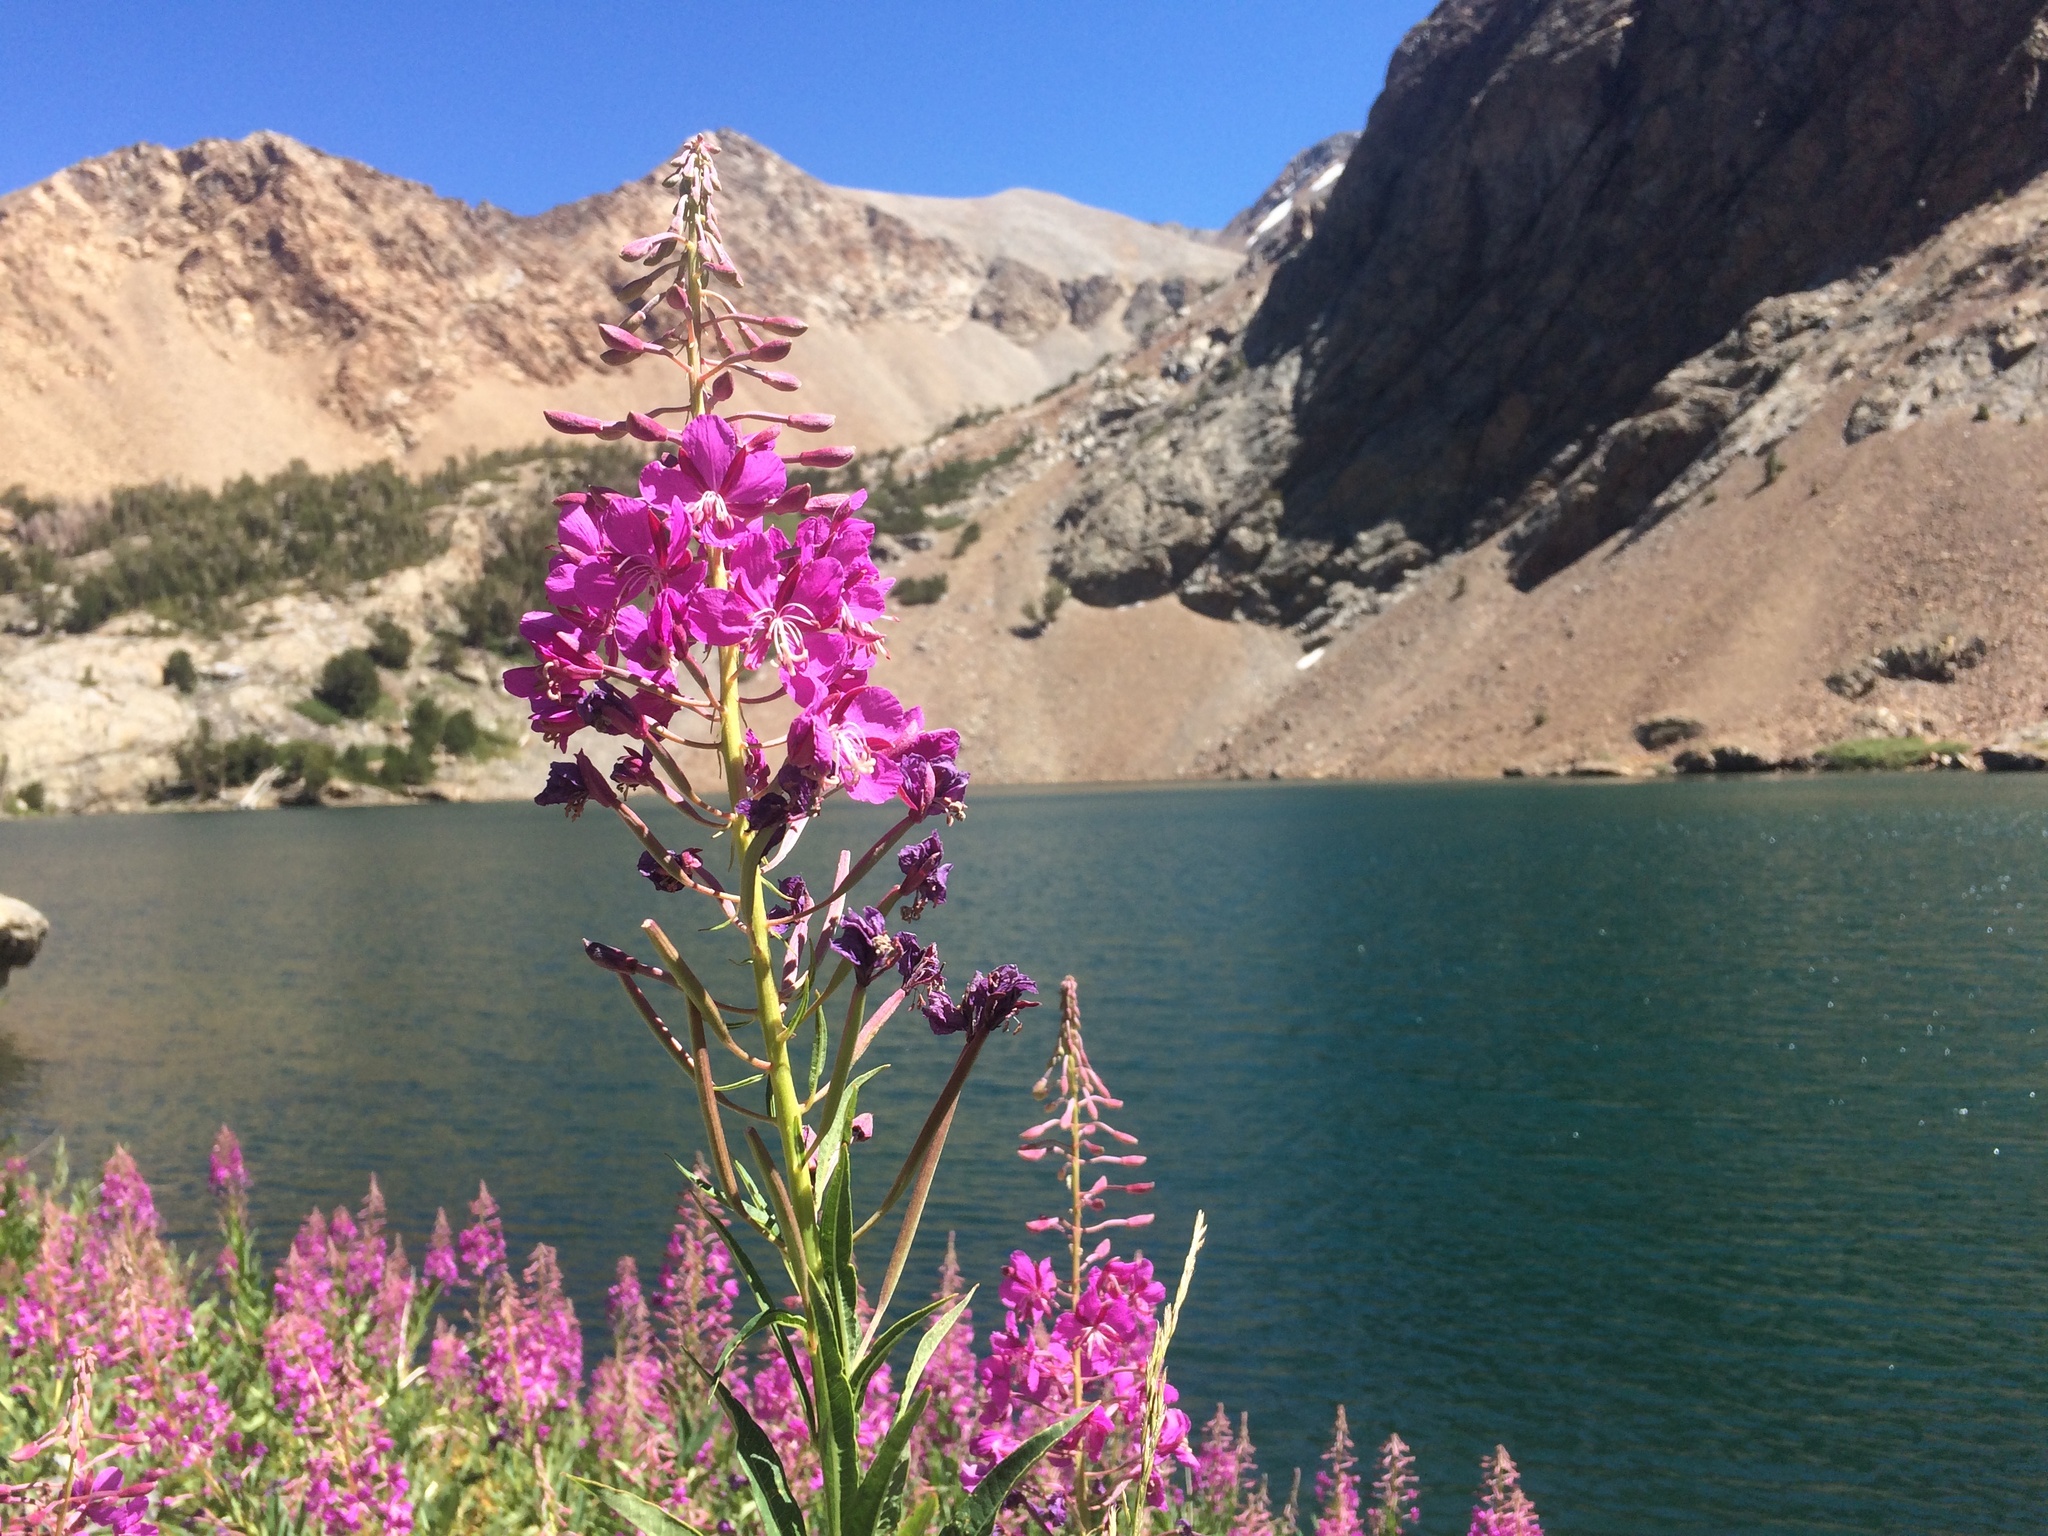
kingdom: Plantae
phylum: Tracheophyta
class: Magnoliopsida
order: Myrtales
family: Onagraceae
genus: Chamaenerion
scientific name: Chamaenerion angustifolium
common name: Fireweed
